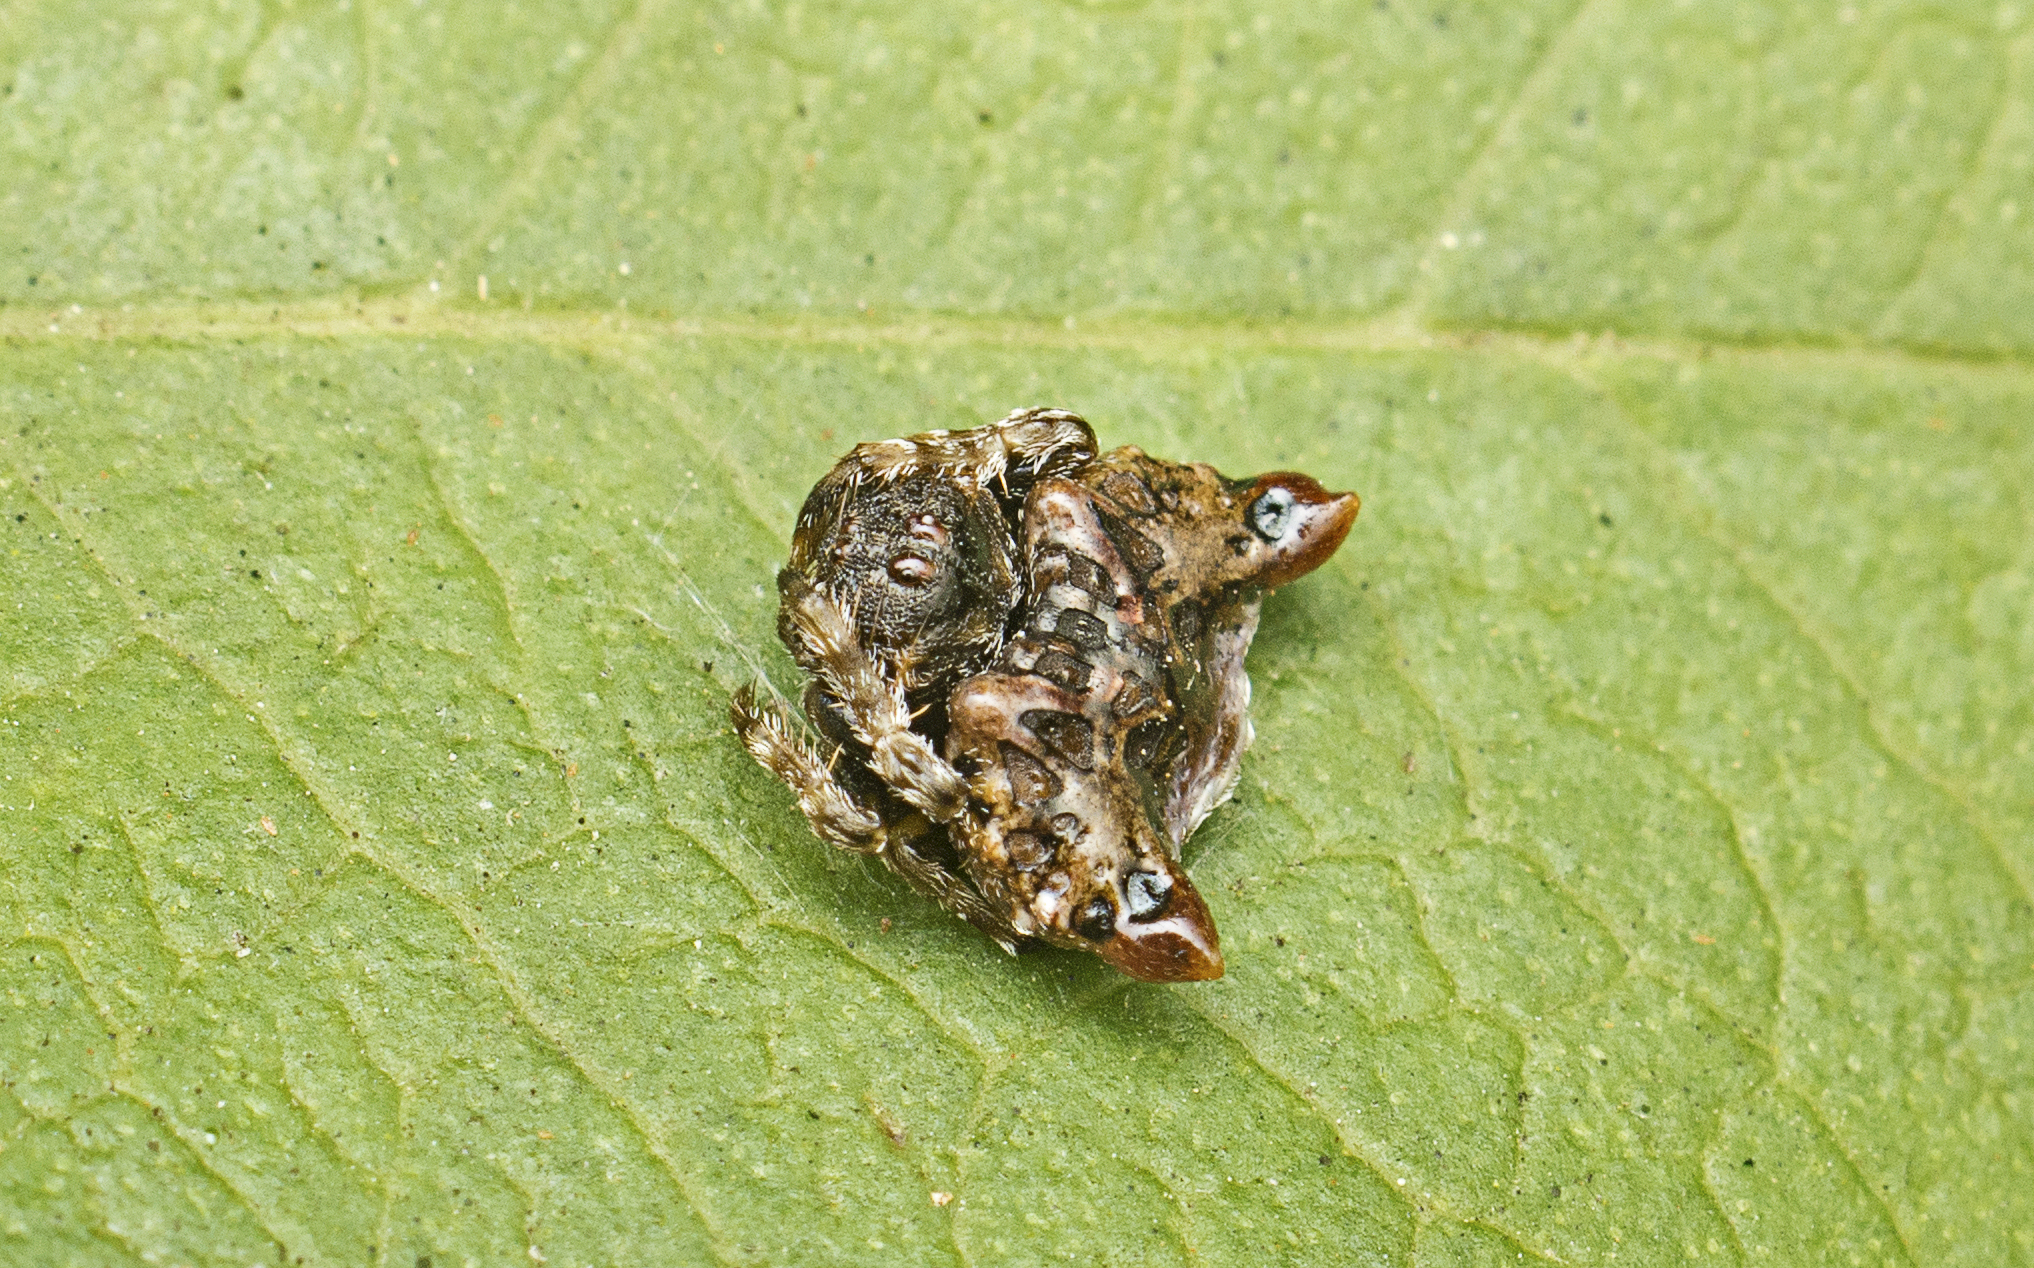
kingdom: Animalia
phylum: Arthropoda
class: Arachnida
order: Araneae
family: Arkyidae
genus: Arkys
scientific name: Arkys curtulus
